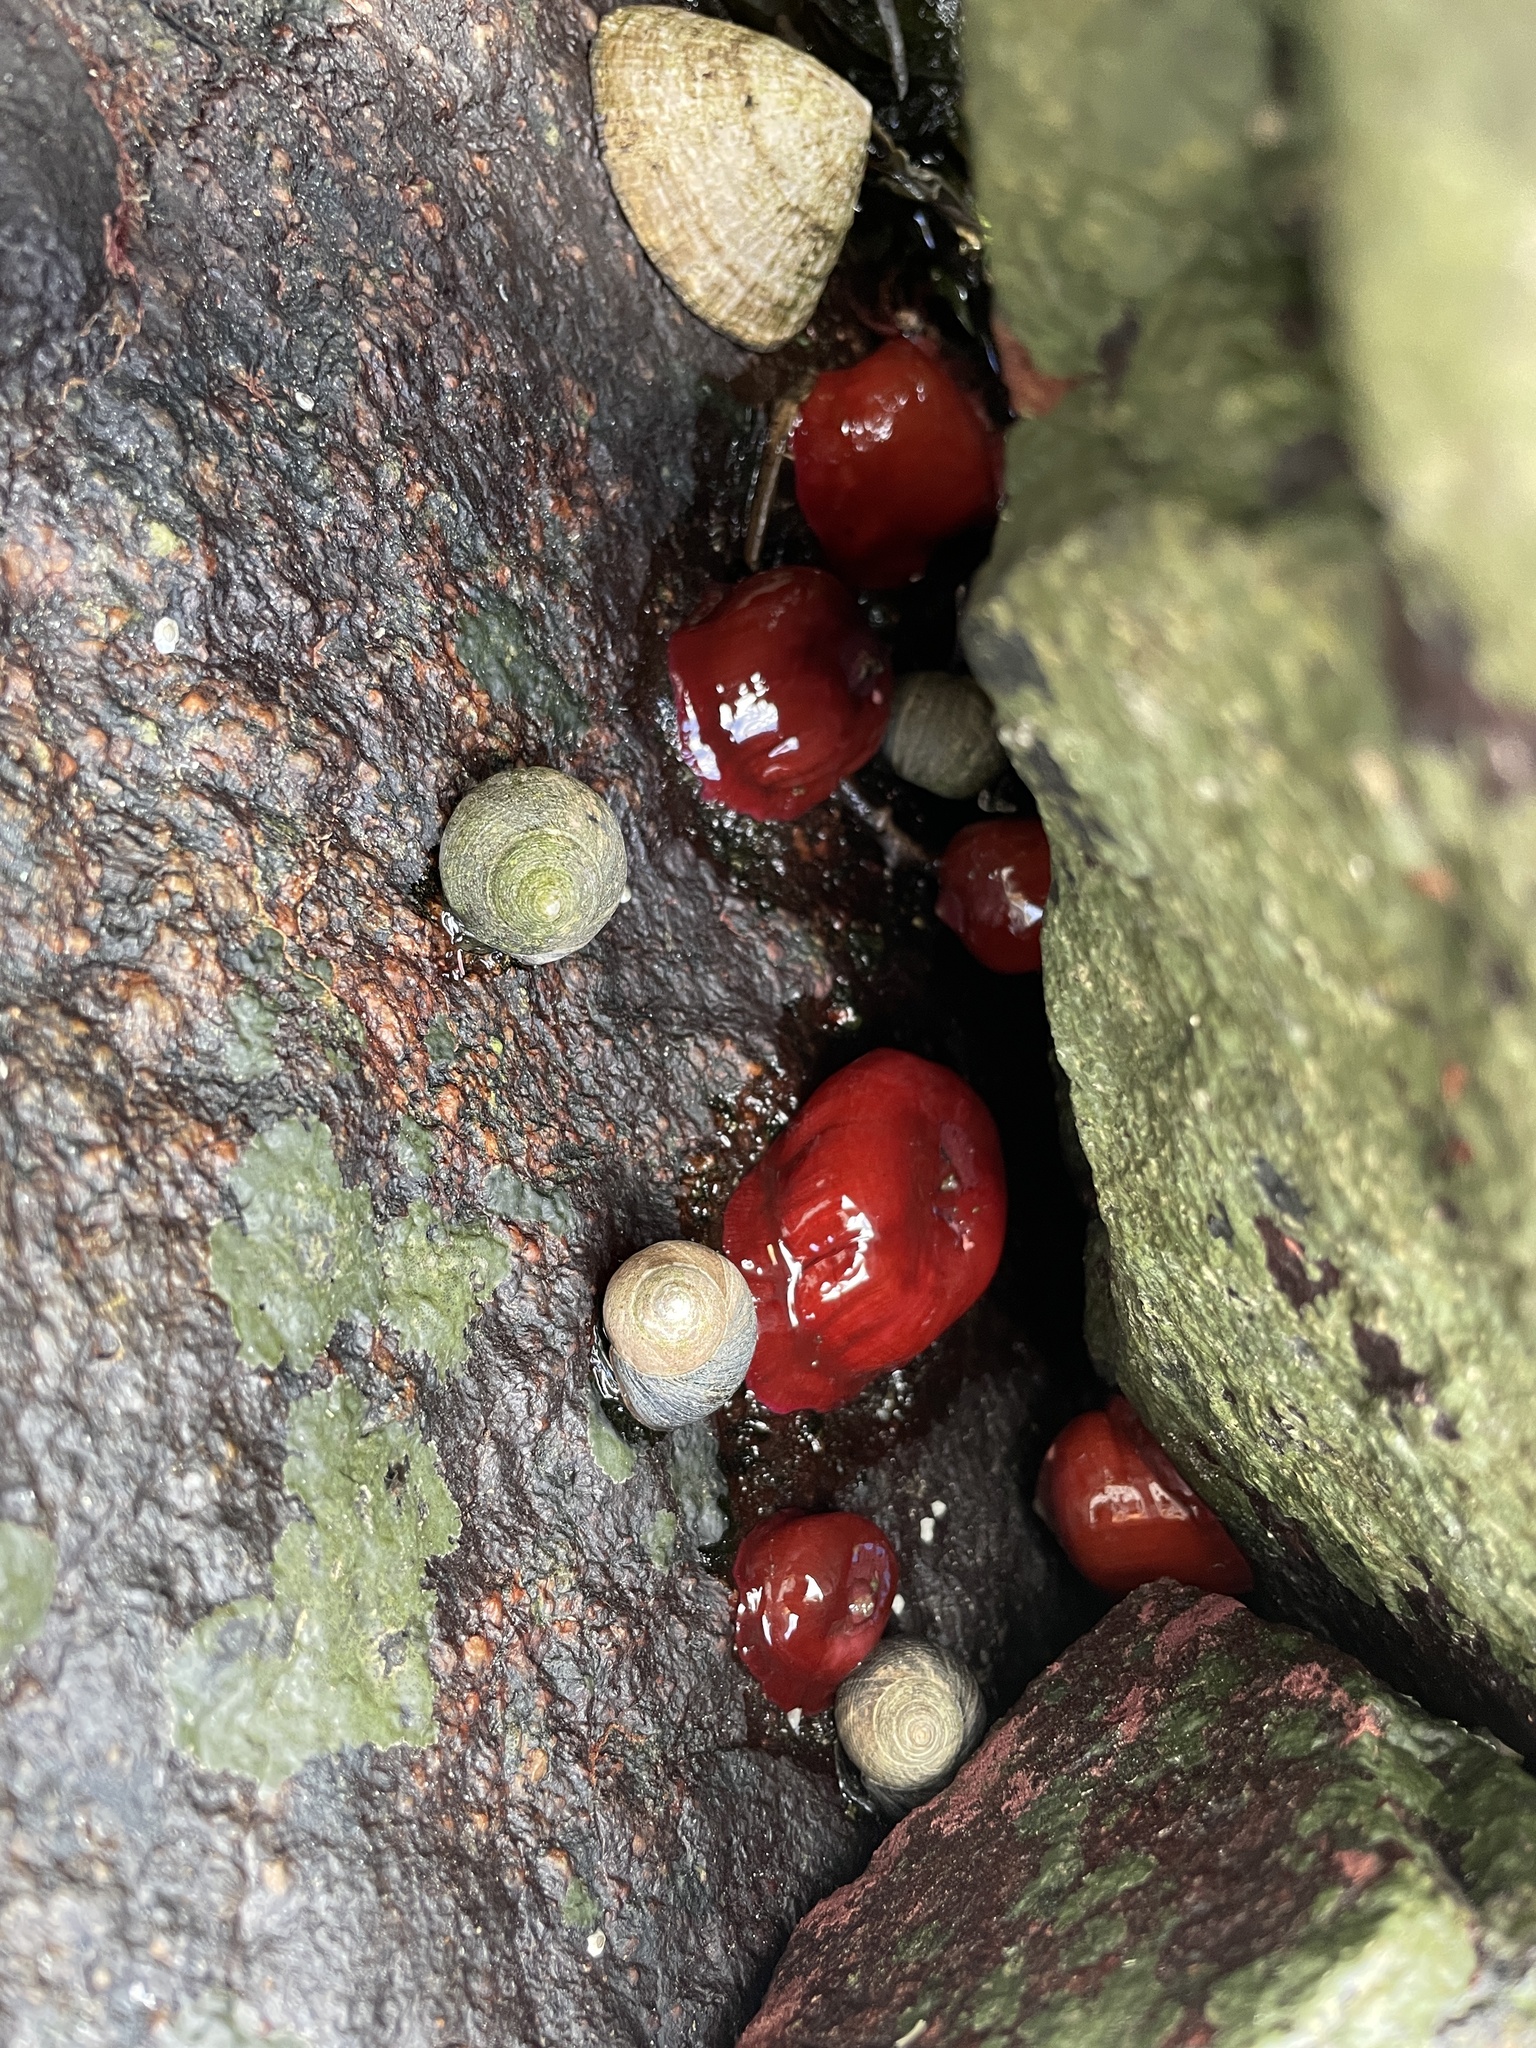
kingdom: Animalia
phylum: Cnidaria
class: Anthozoa
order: Actiniaria
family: Actiniidae
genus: Actinia
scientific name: Actinia equina
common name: Beadlet anemone
